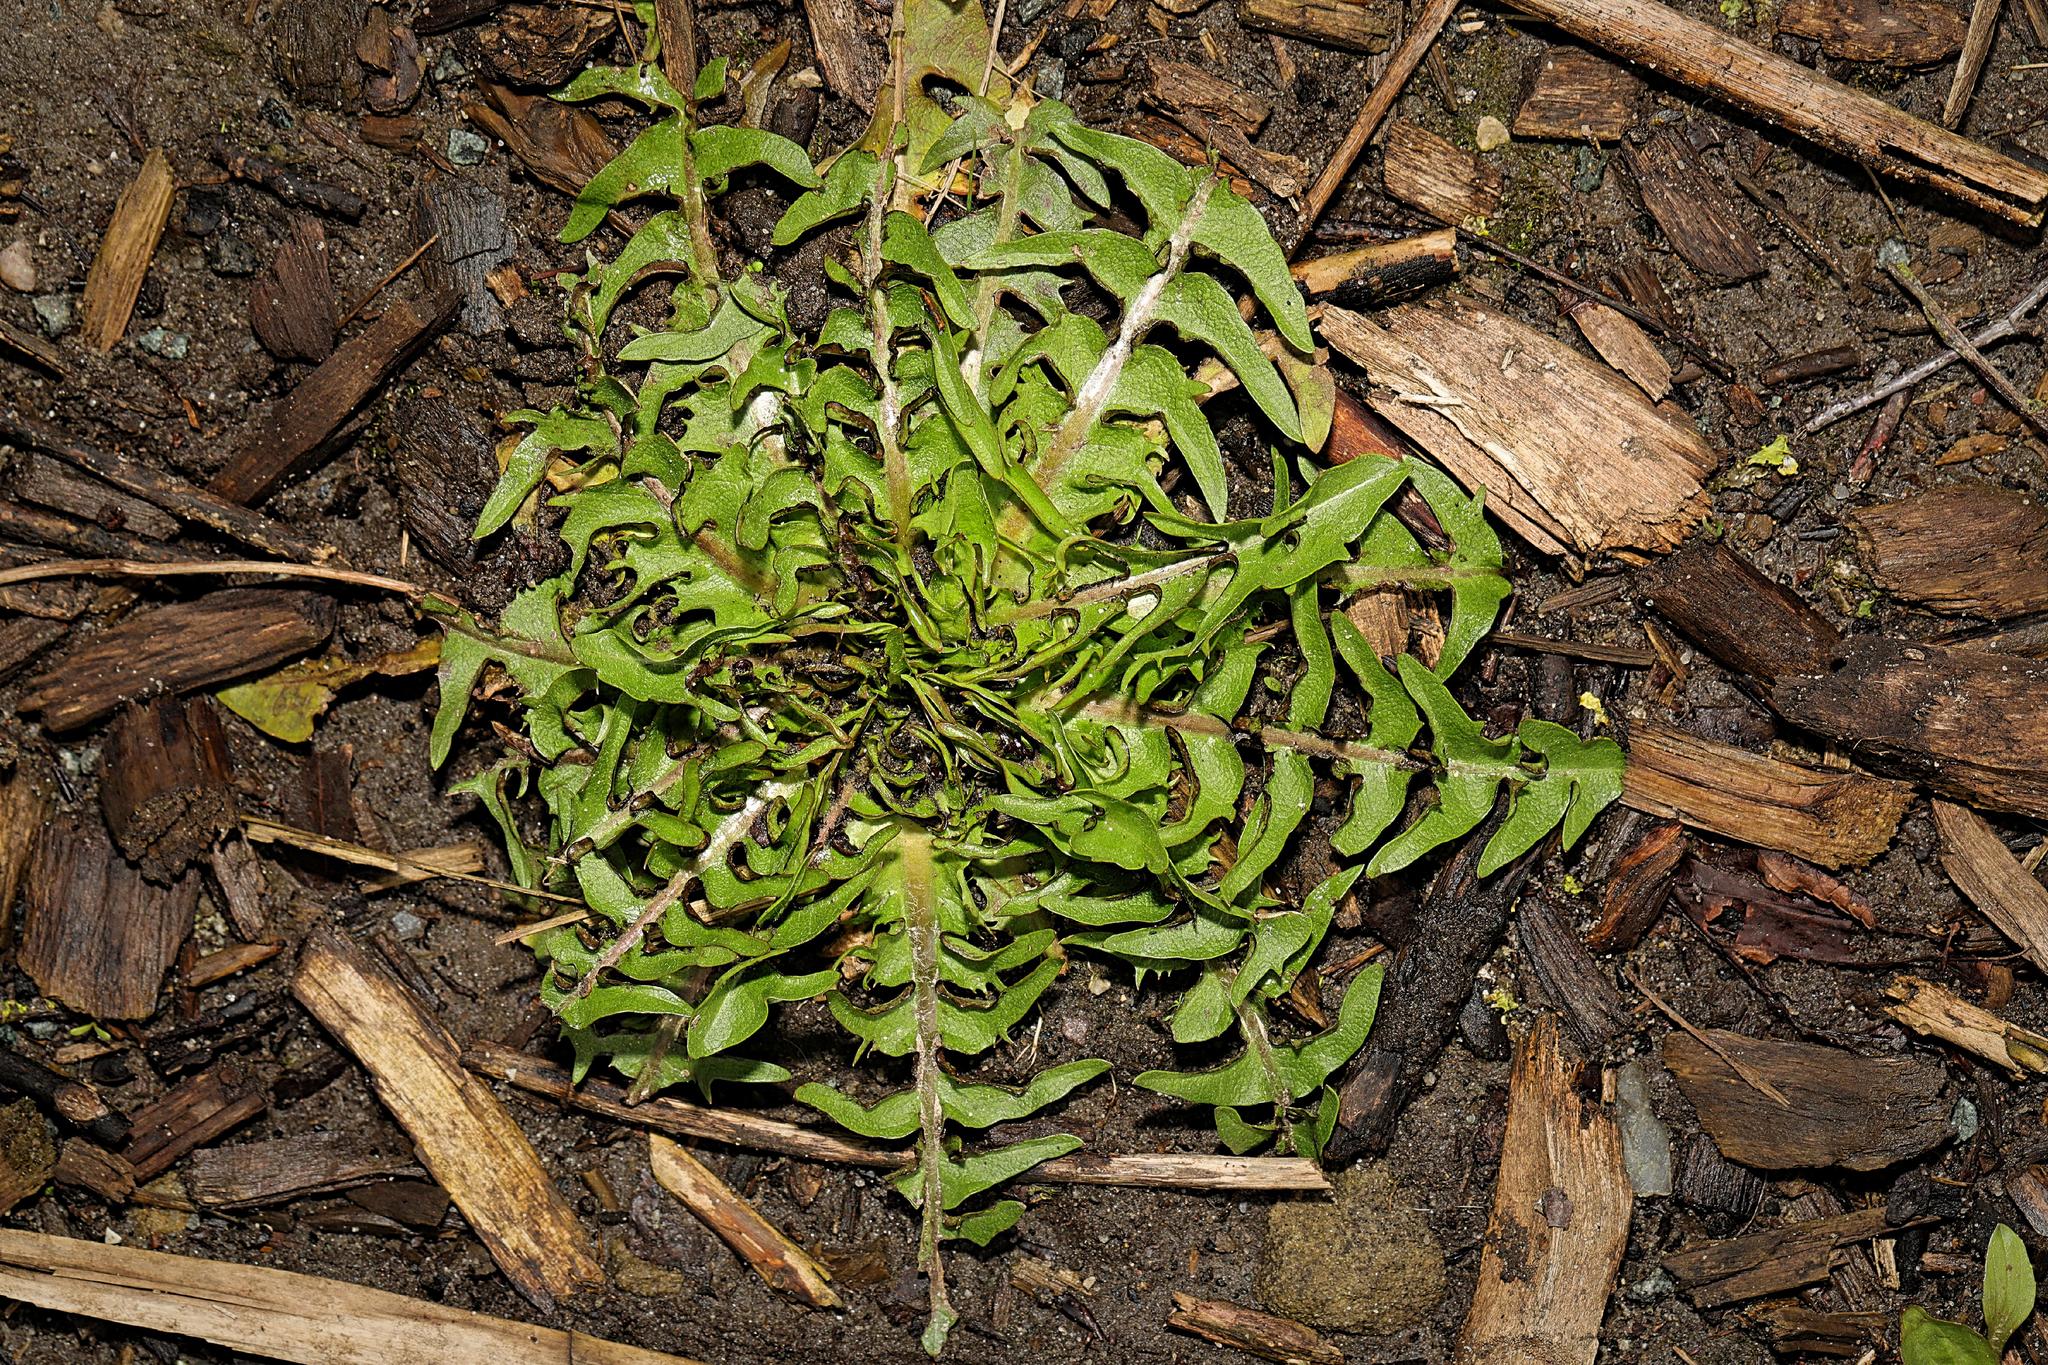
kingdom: Plantae
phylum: Tracheophyta
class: Magnoliopsida
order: Asterales
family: Asteraceae
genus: Taraxacum
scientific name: Taraxacum officinale
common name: Common dandelion
